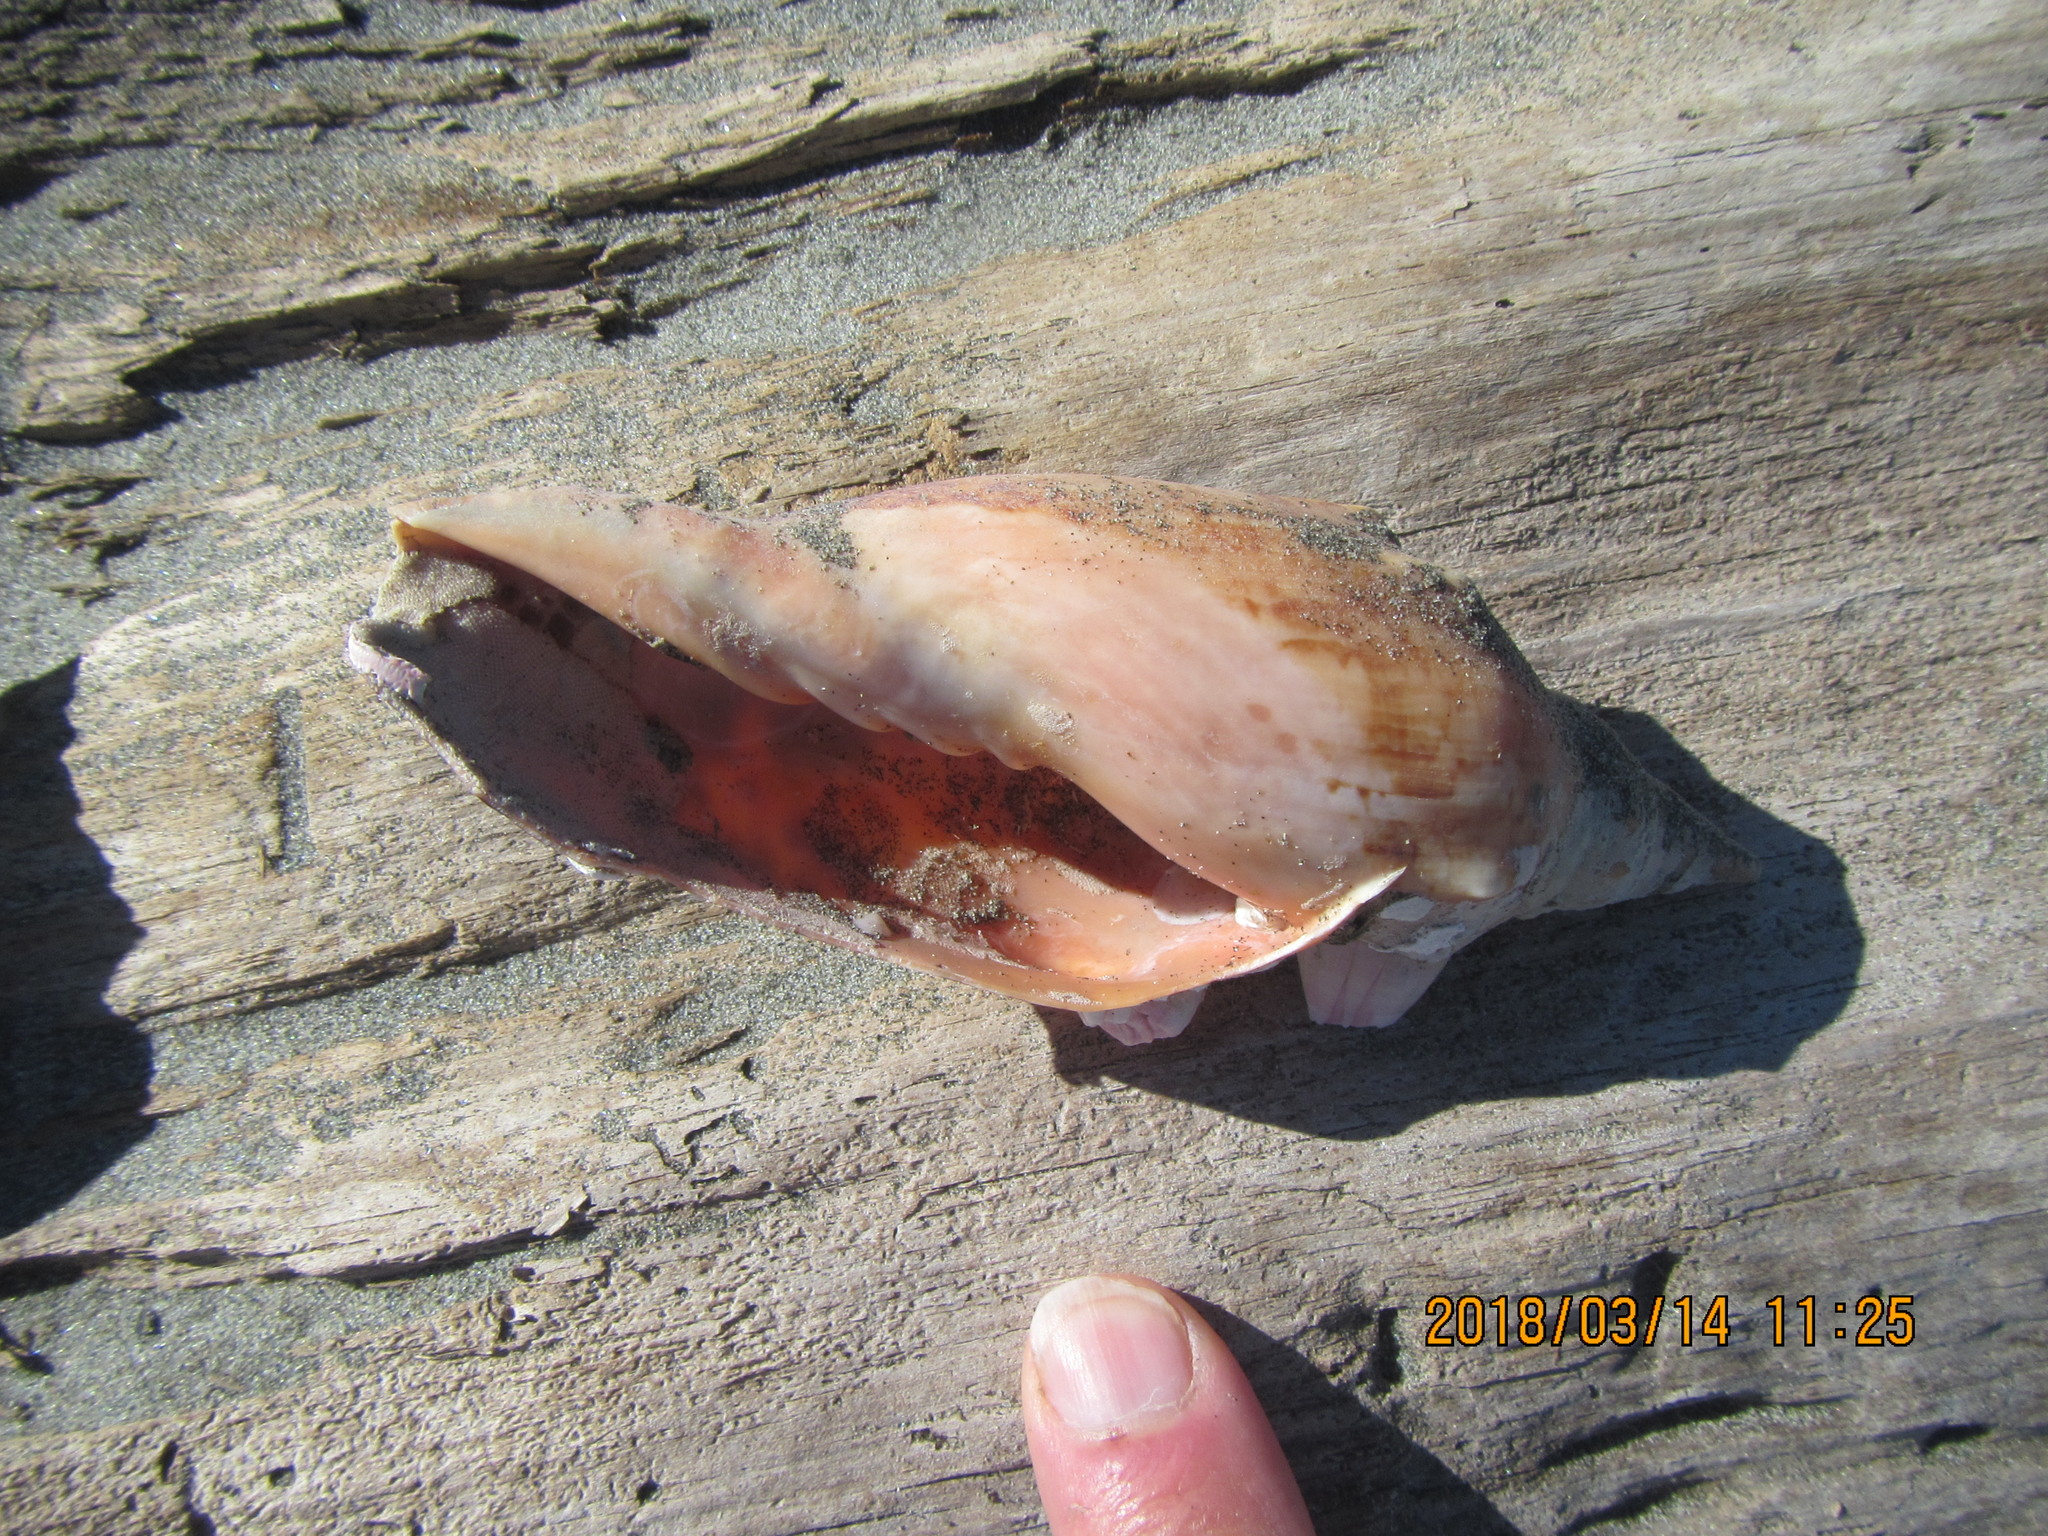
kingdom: Animalia
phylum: Mollusca
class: Gastropoda
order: Neogastropoda
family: Volutidae
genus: Alcithoe
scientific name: Alcithoe arabica
